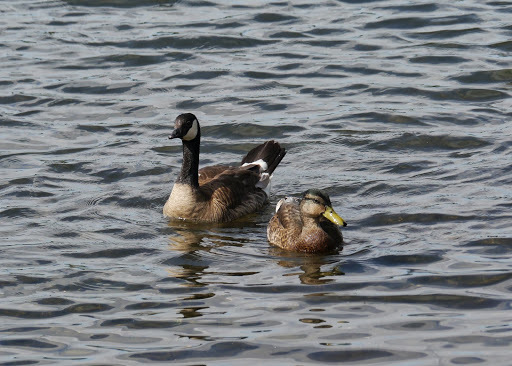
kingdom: Animalia
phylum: Chordata
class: Aves
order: Anseriformes
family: Anatidae
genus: Branta
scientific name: Branta canadensis
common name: Canada goose
